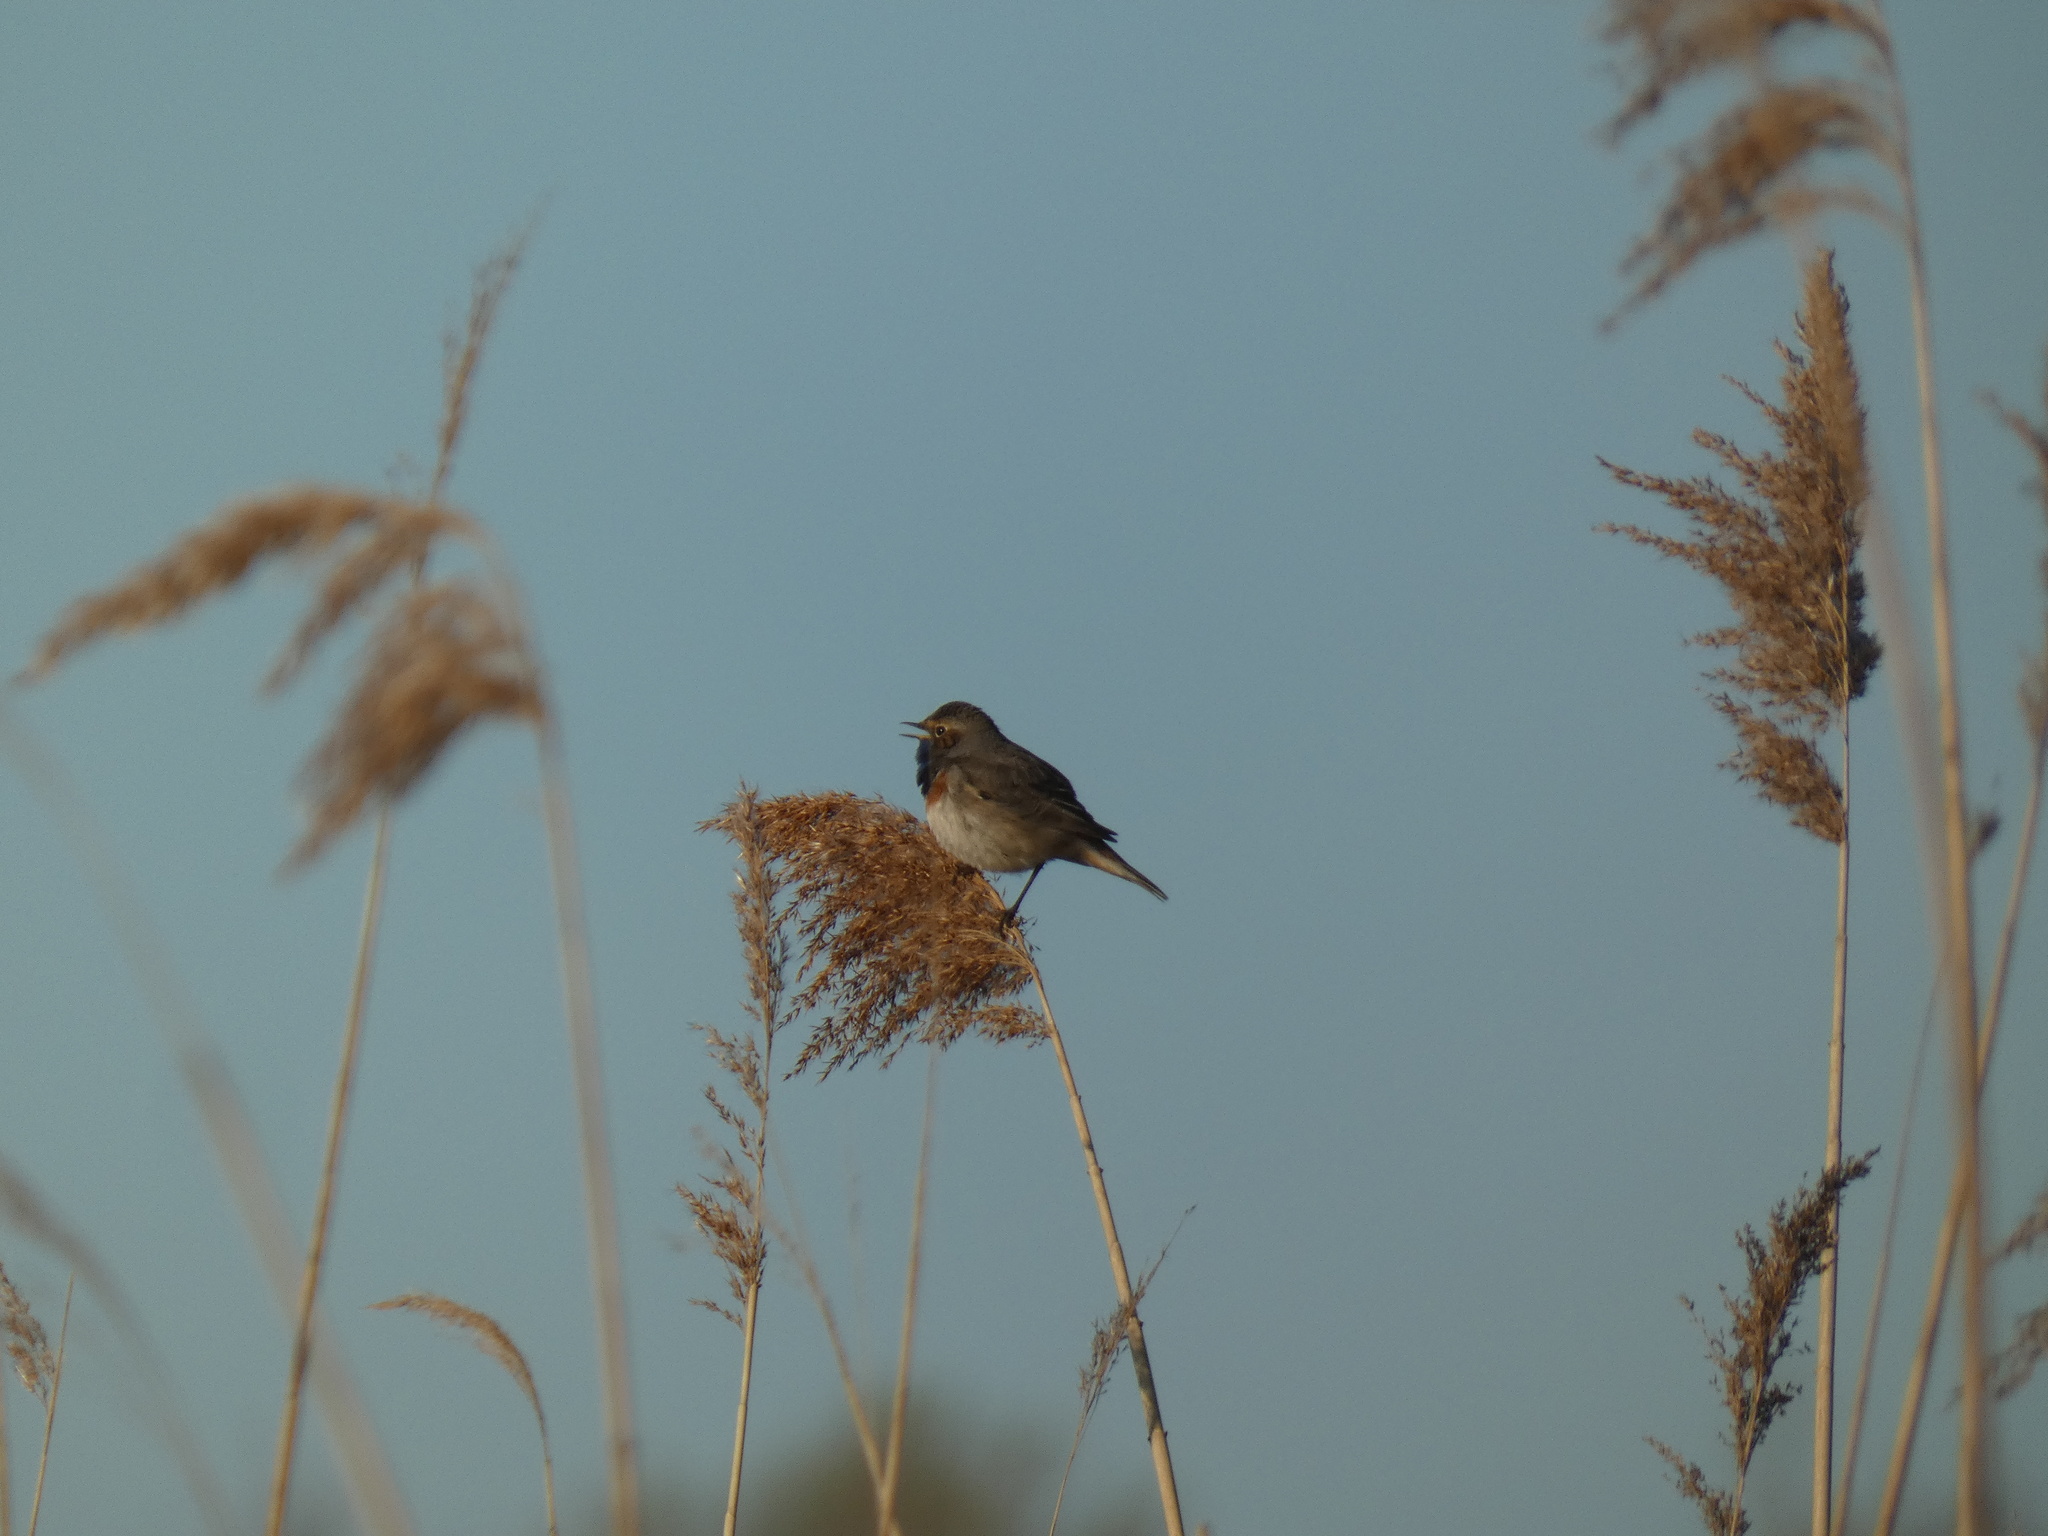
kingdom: Animalia
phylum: Chordata
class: Aves
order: Passeriformes
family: Muscicapidae
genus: Luscinia
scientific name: Luscinia svecica
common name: Bluethroat
